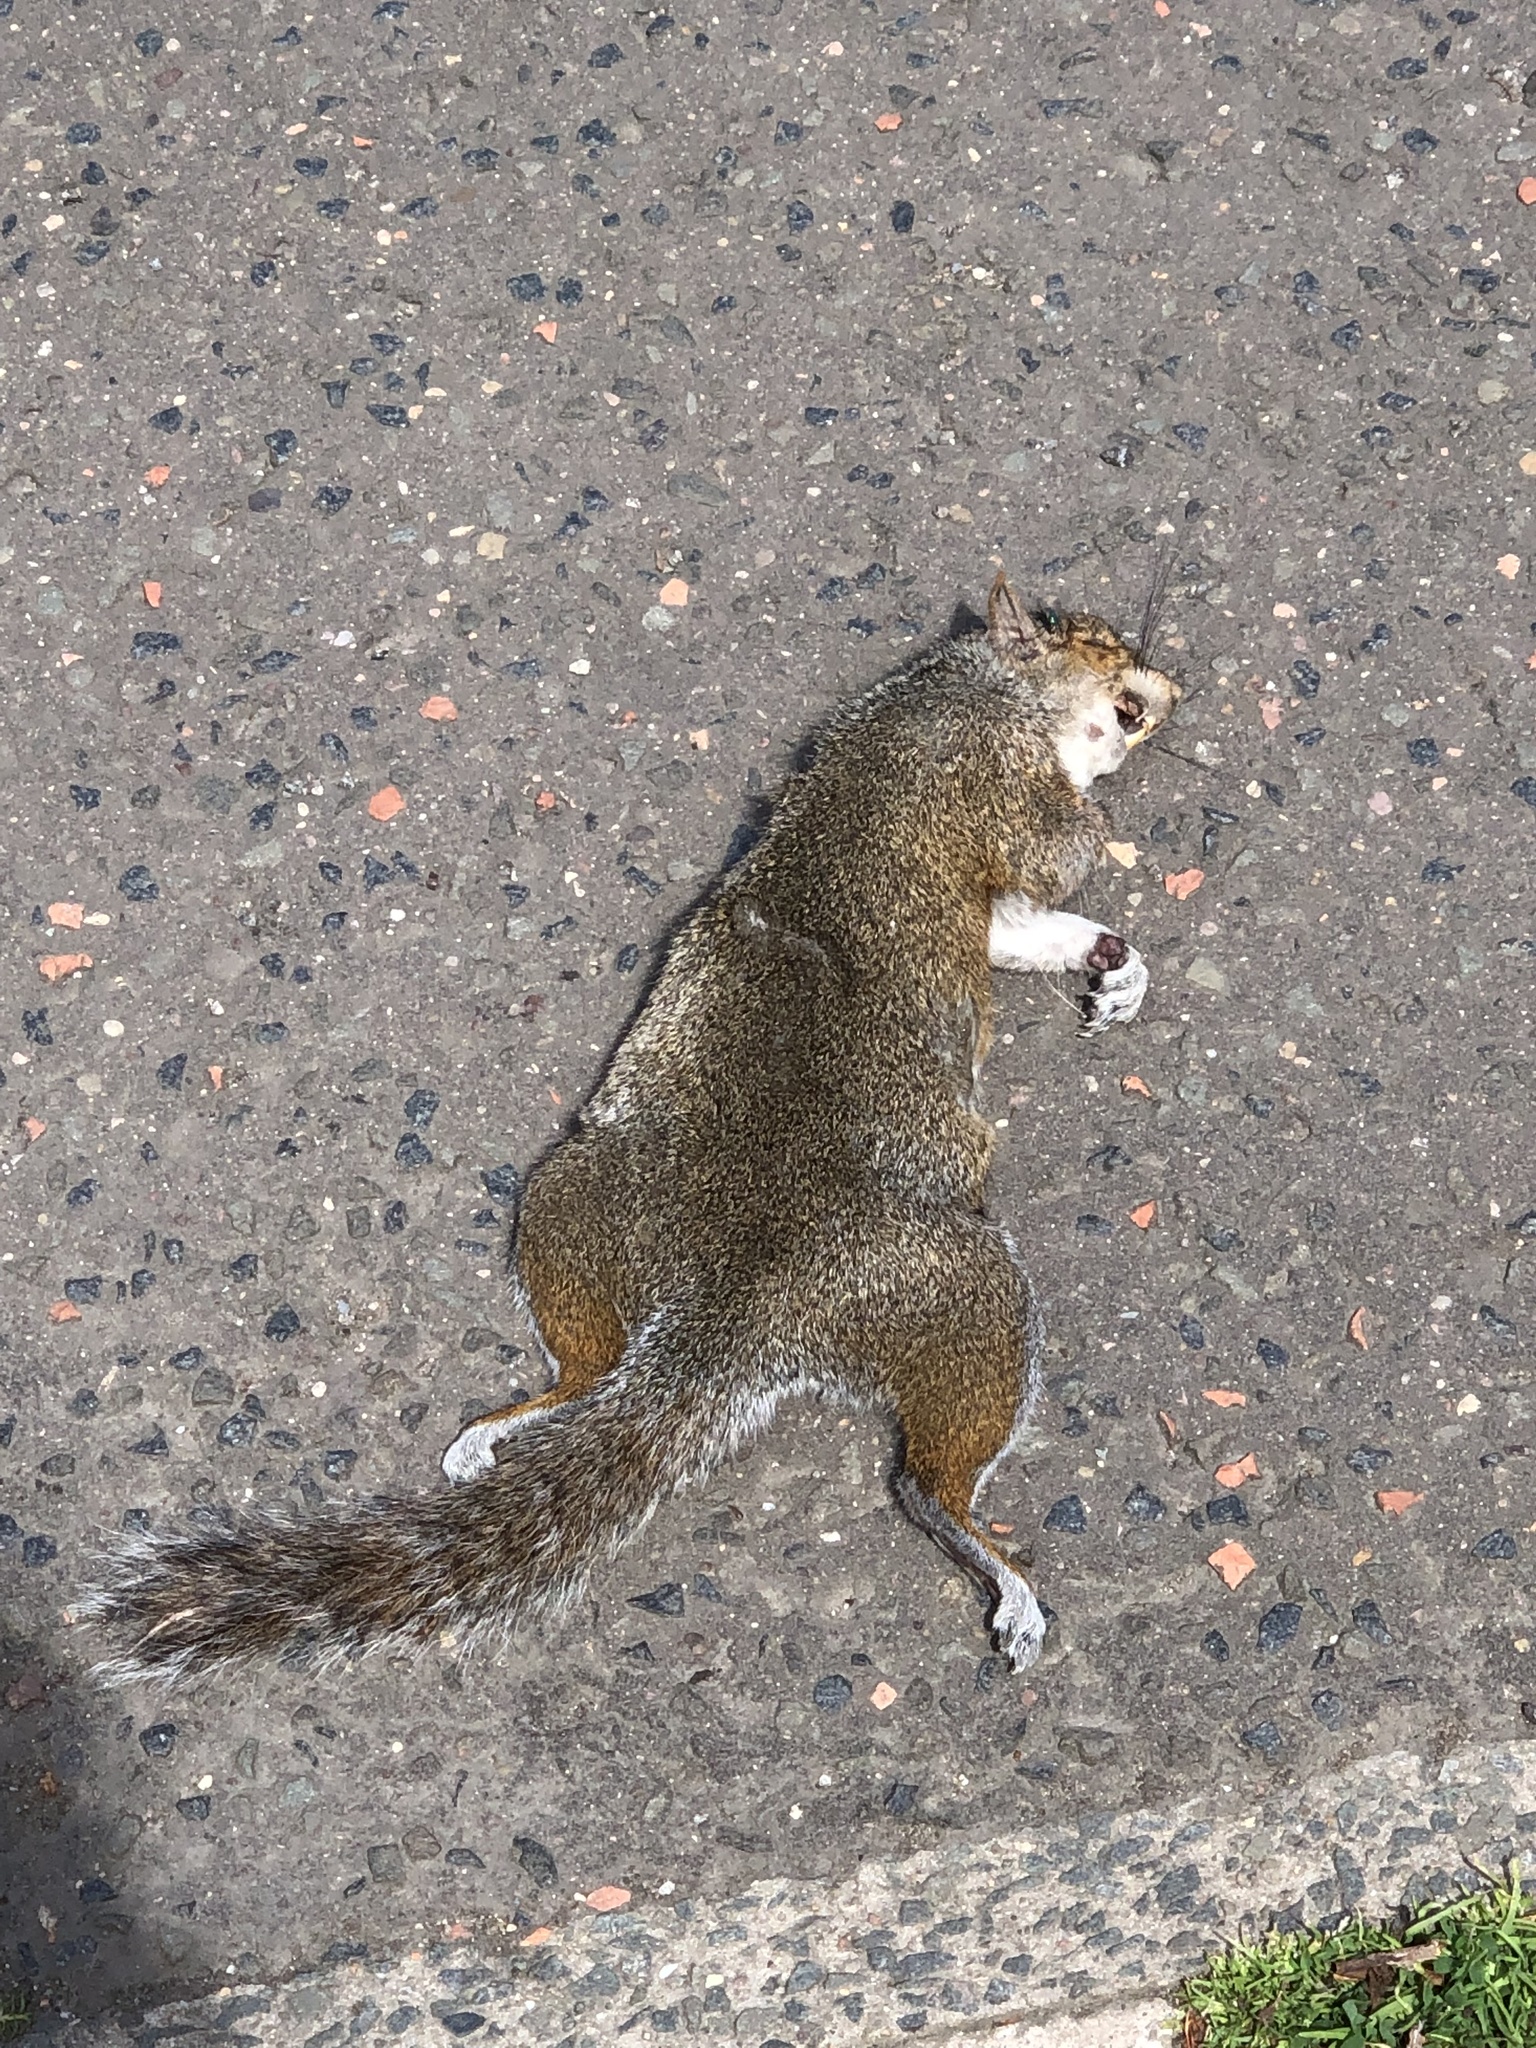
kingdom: Animalia
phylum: Chordata
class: Mammalia
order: Rodentia
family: Sciuridae
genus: Sciurus
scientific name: Sciurus carolinensis
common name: Eastern gray squirrel
